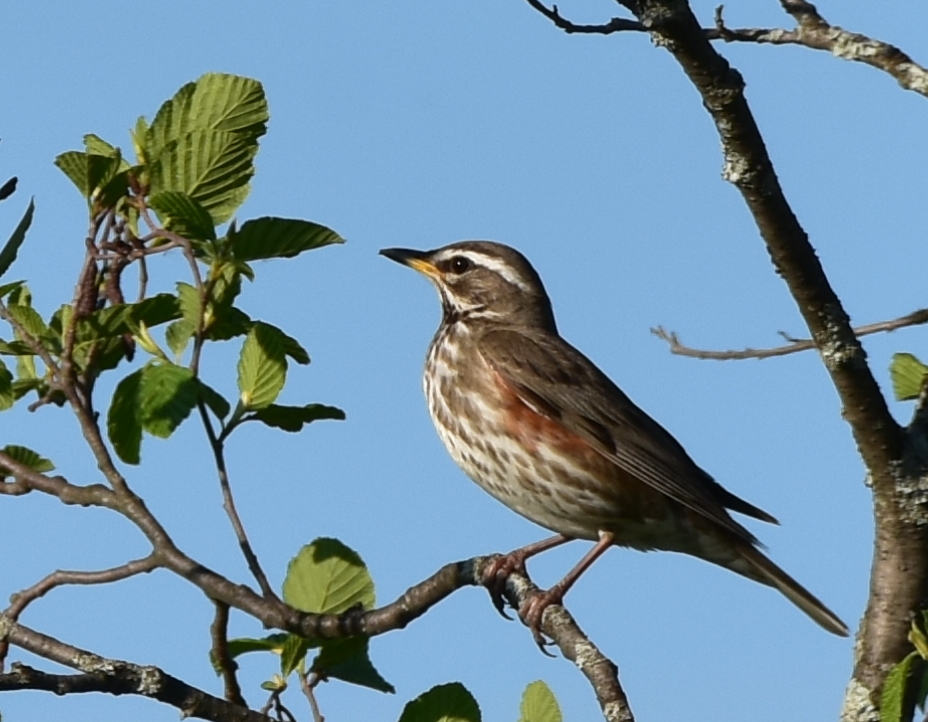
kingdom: Animalia
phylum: Chordata
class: Aves
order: Passeriformes
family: Turdidae
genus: Turdus
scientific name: Turdus iliacus
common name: Redwing
